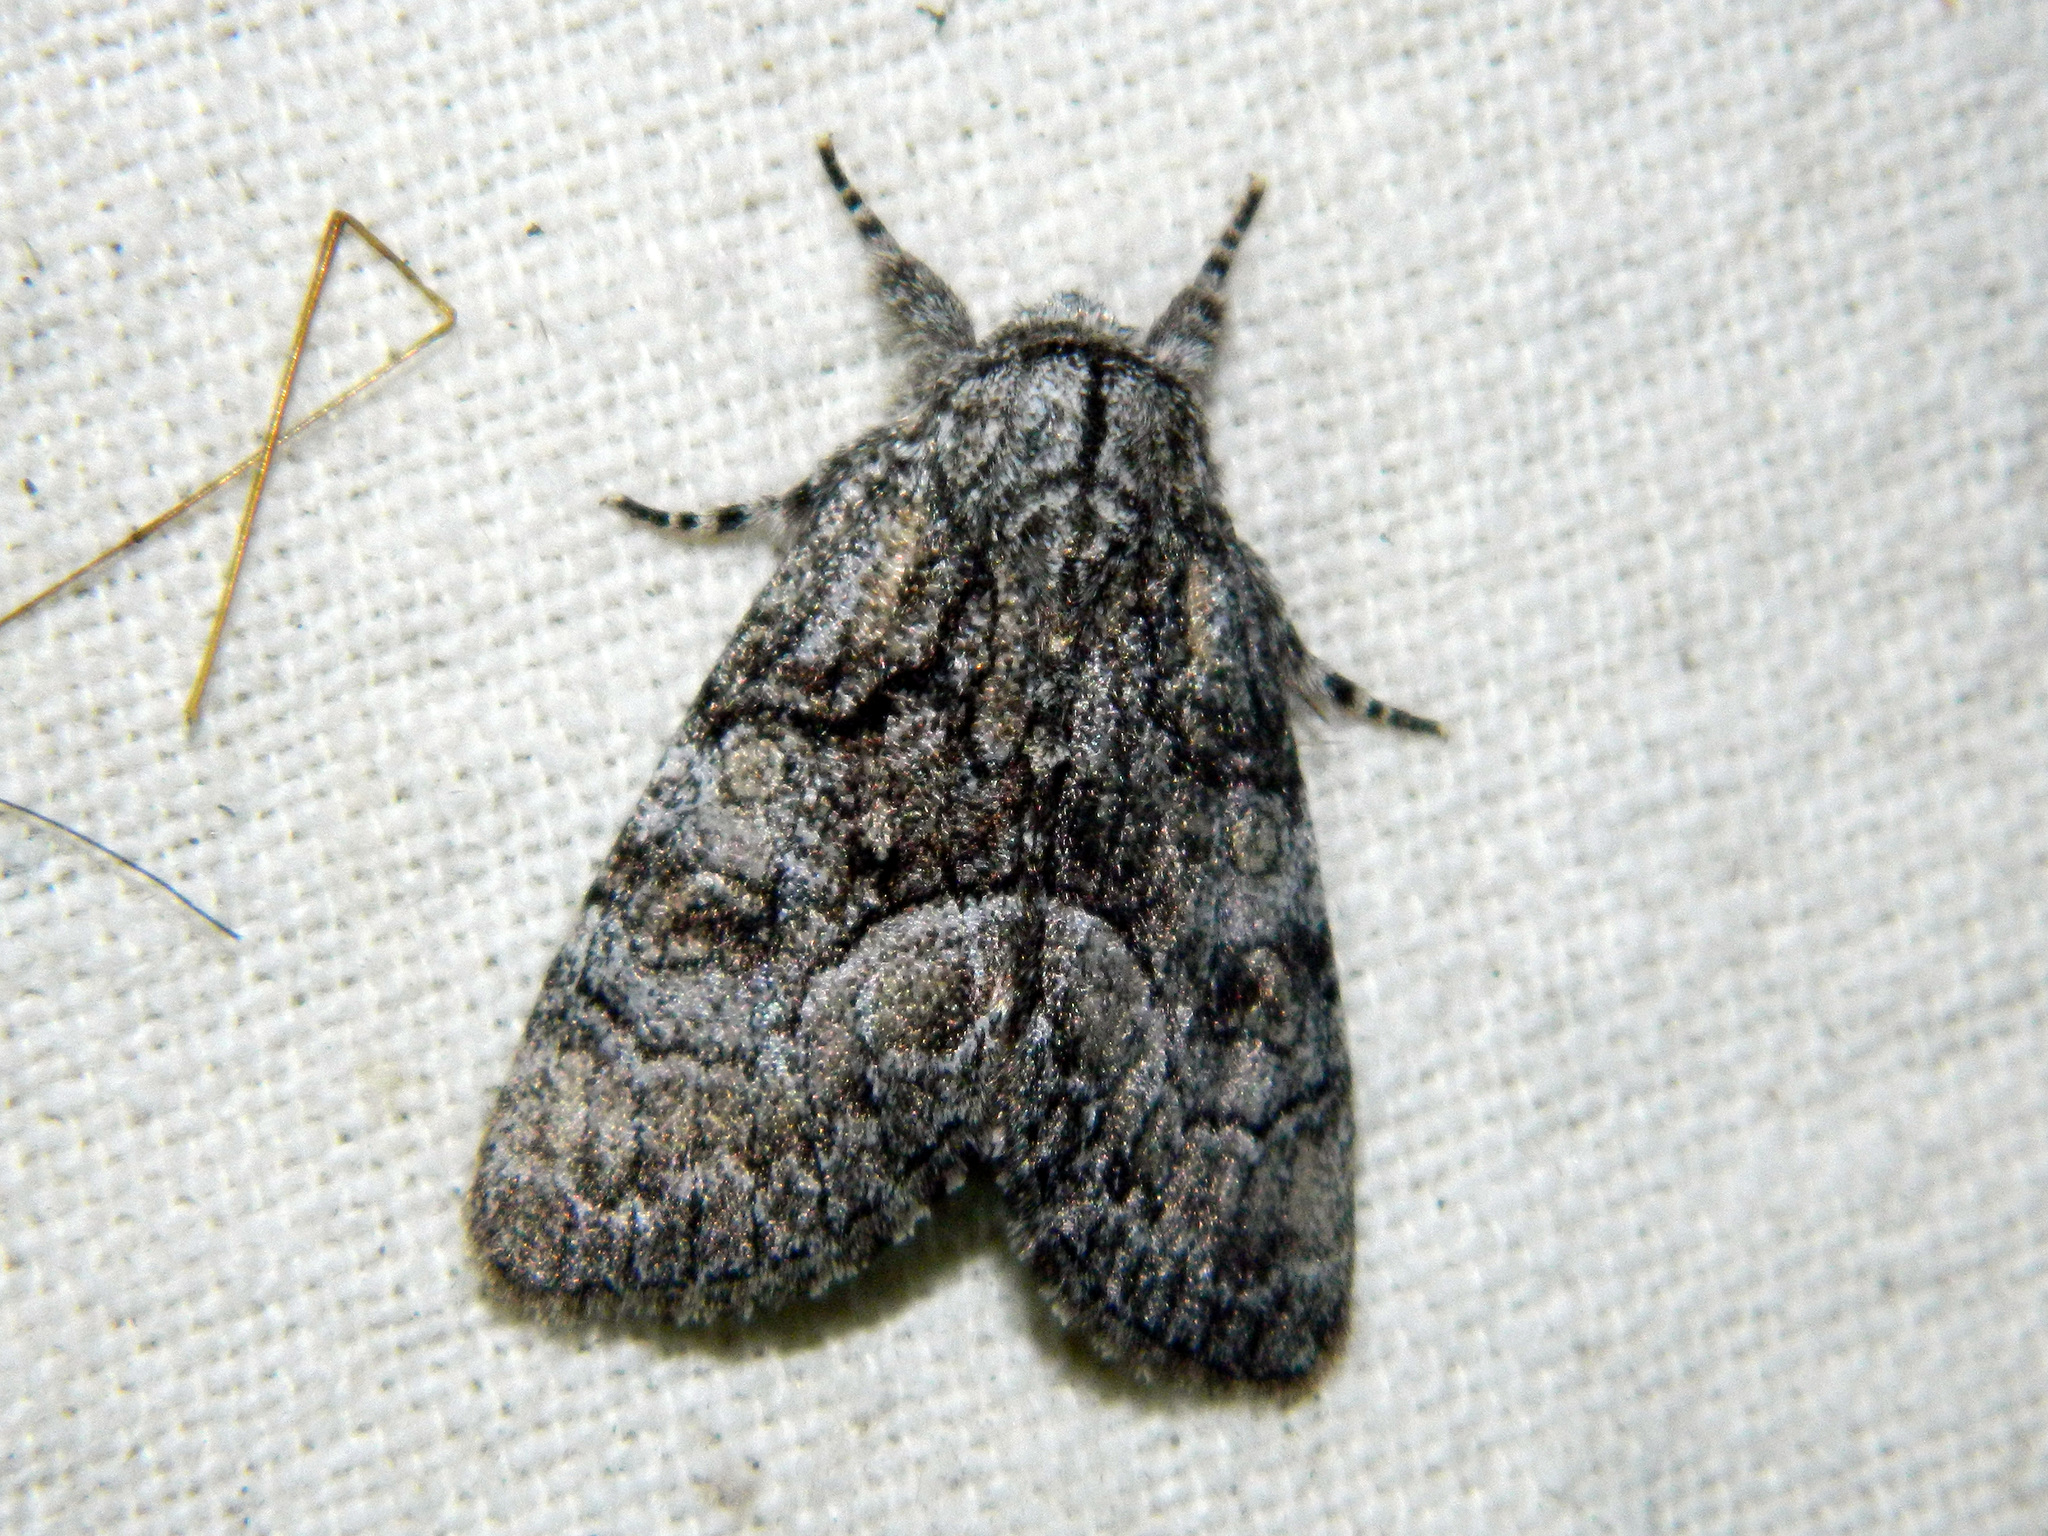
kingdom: Animalia
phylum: Arthropoda
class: Insecta
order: Lepidoptera
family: Noctuidae
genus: Raphia
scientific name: Raphia frater
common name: Brother
